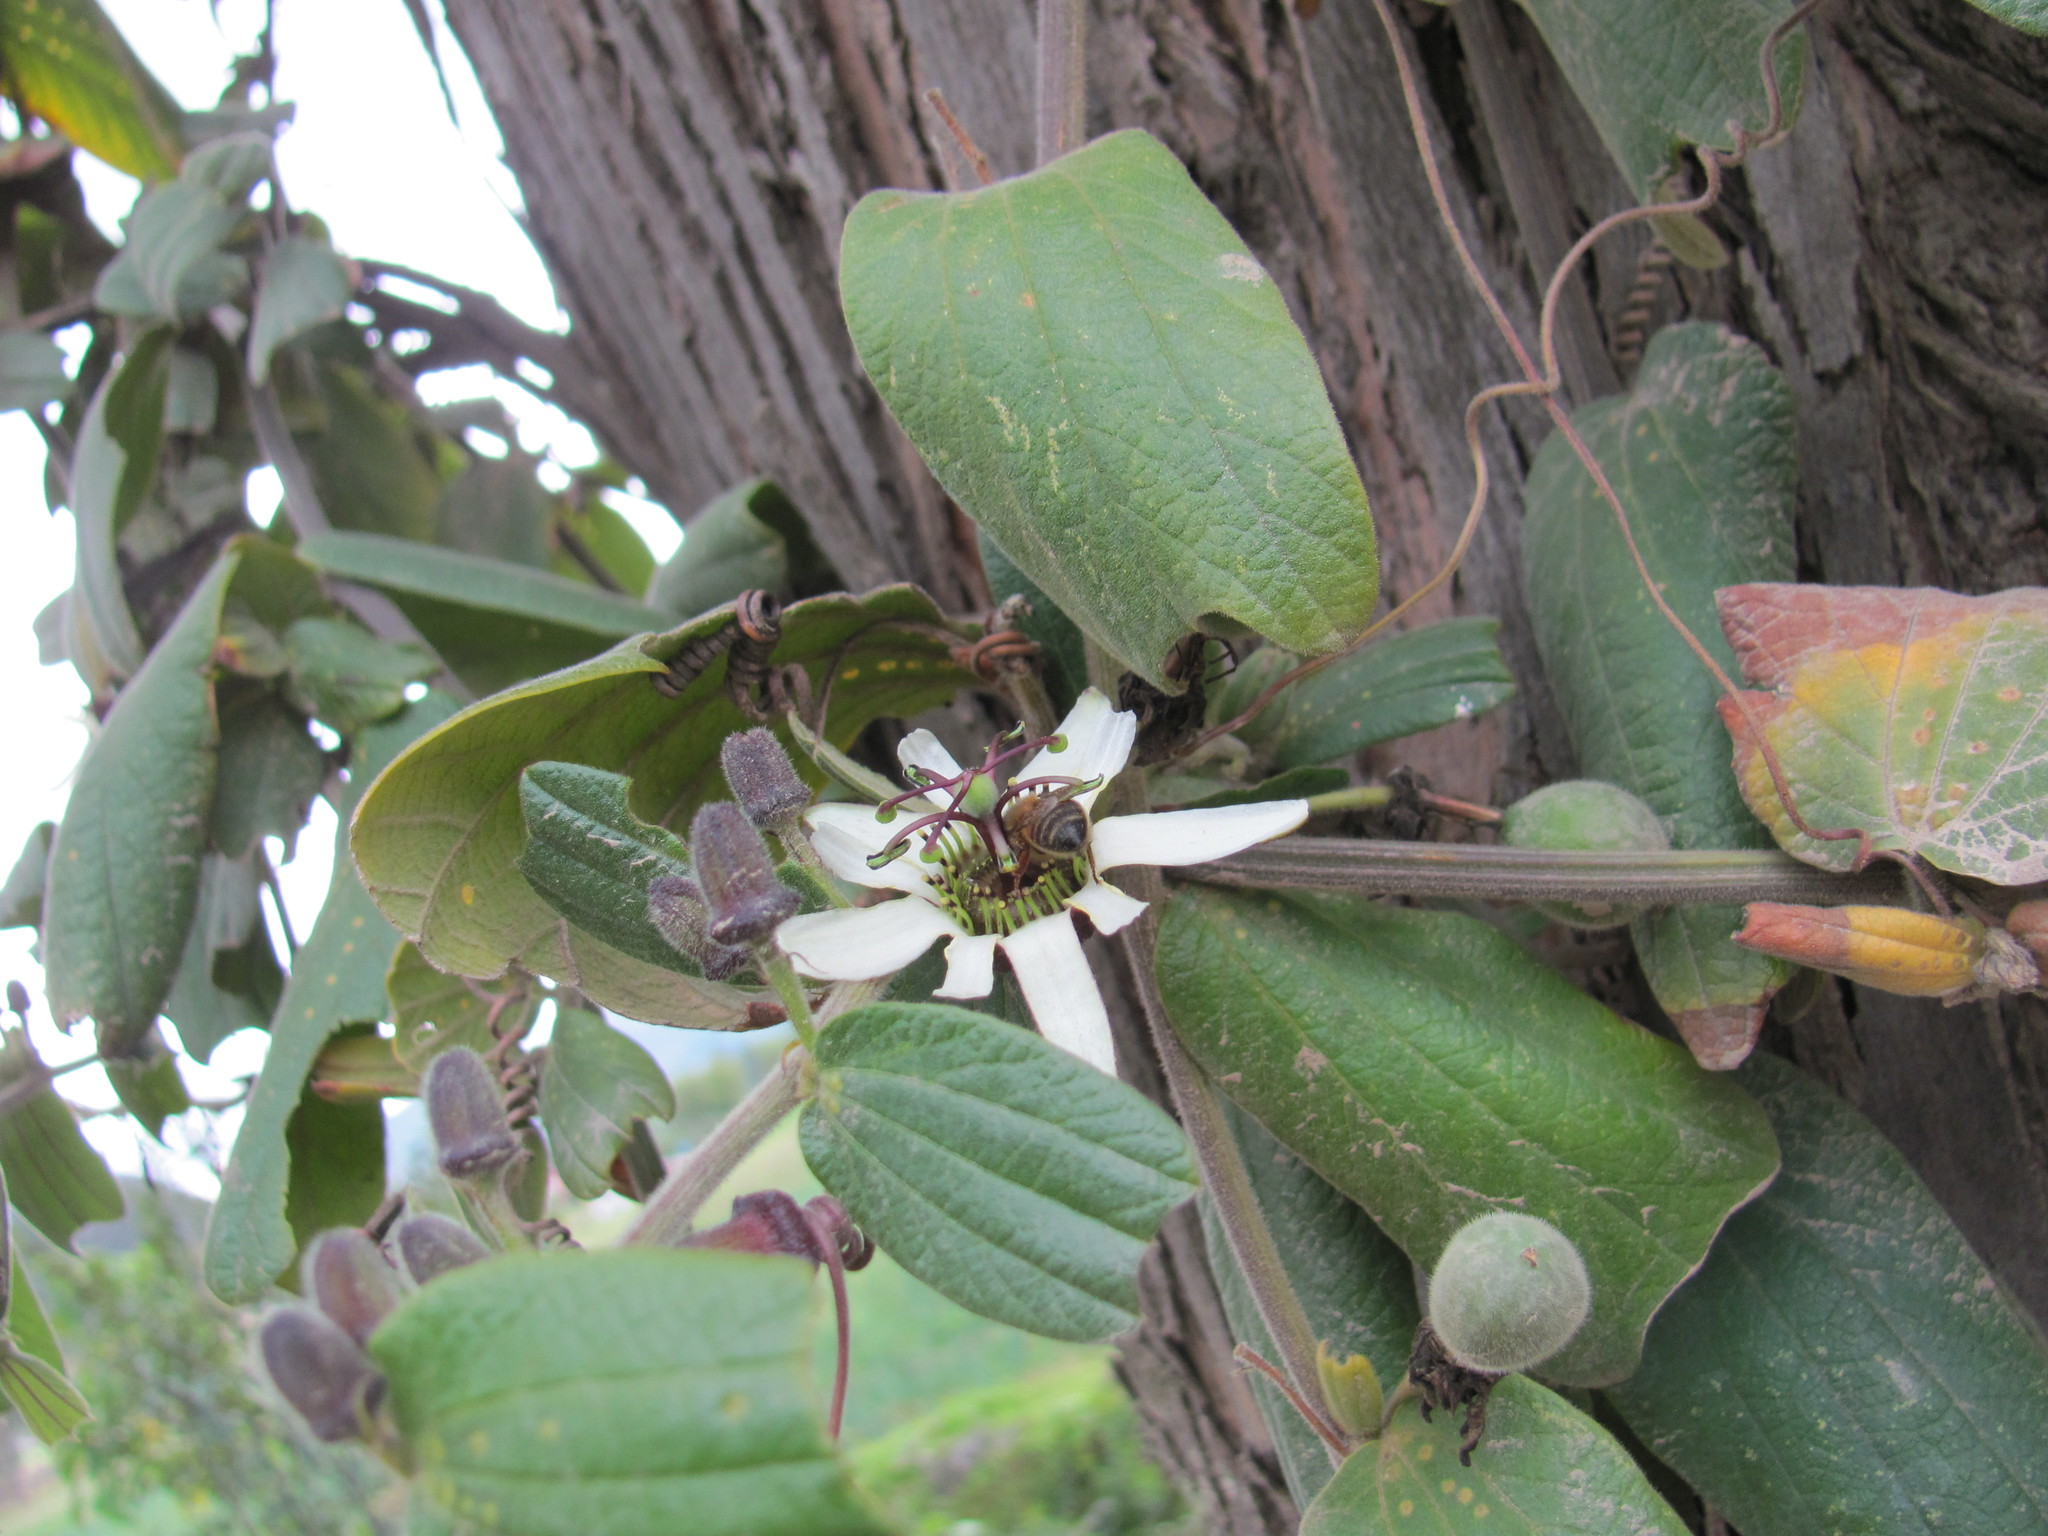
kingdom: Plantae
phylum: Tracheophyta
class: Magnoliopsida
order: Malpighiales
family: Passifloraceae
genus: Passiflora
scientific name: Passiflora bogotensis
